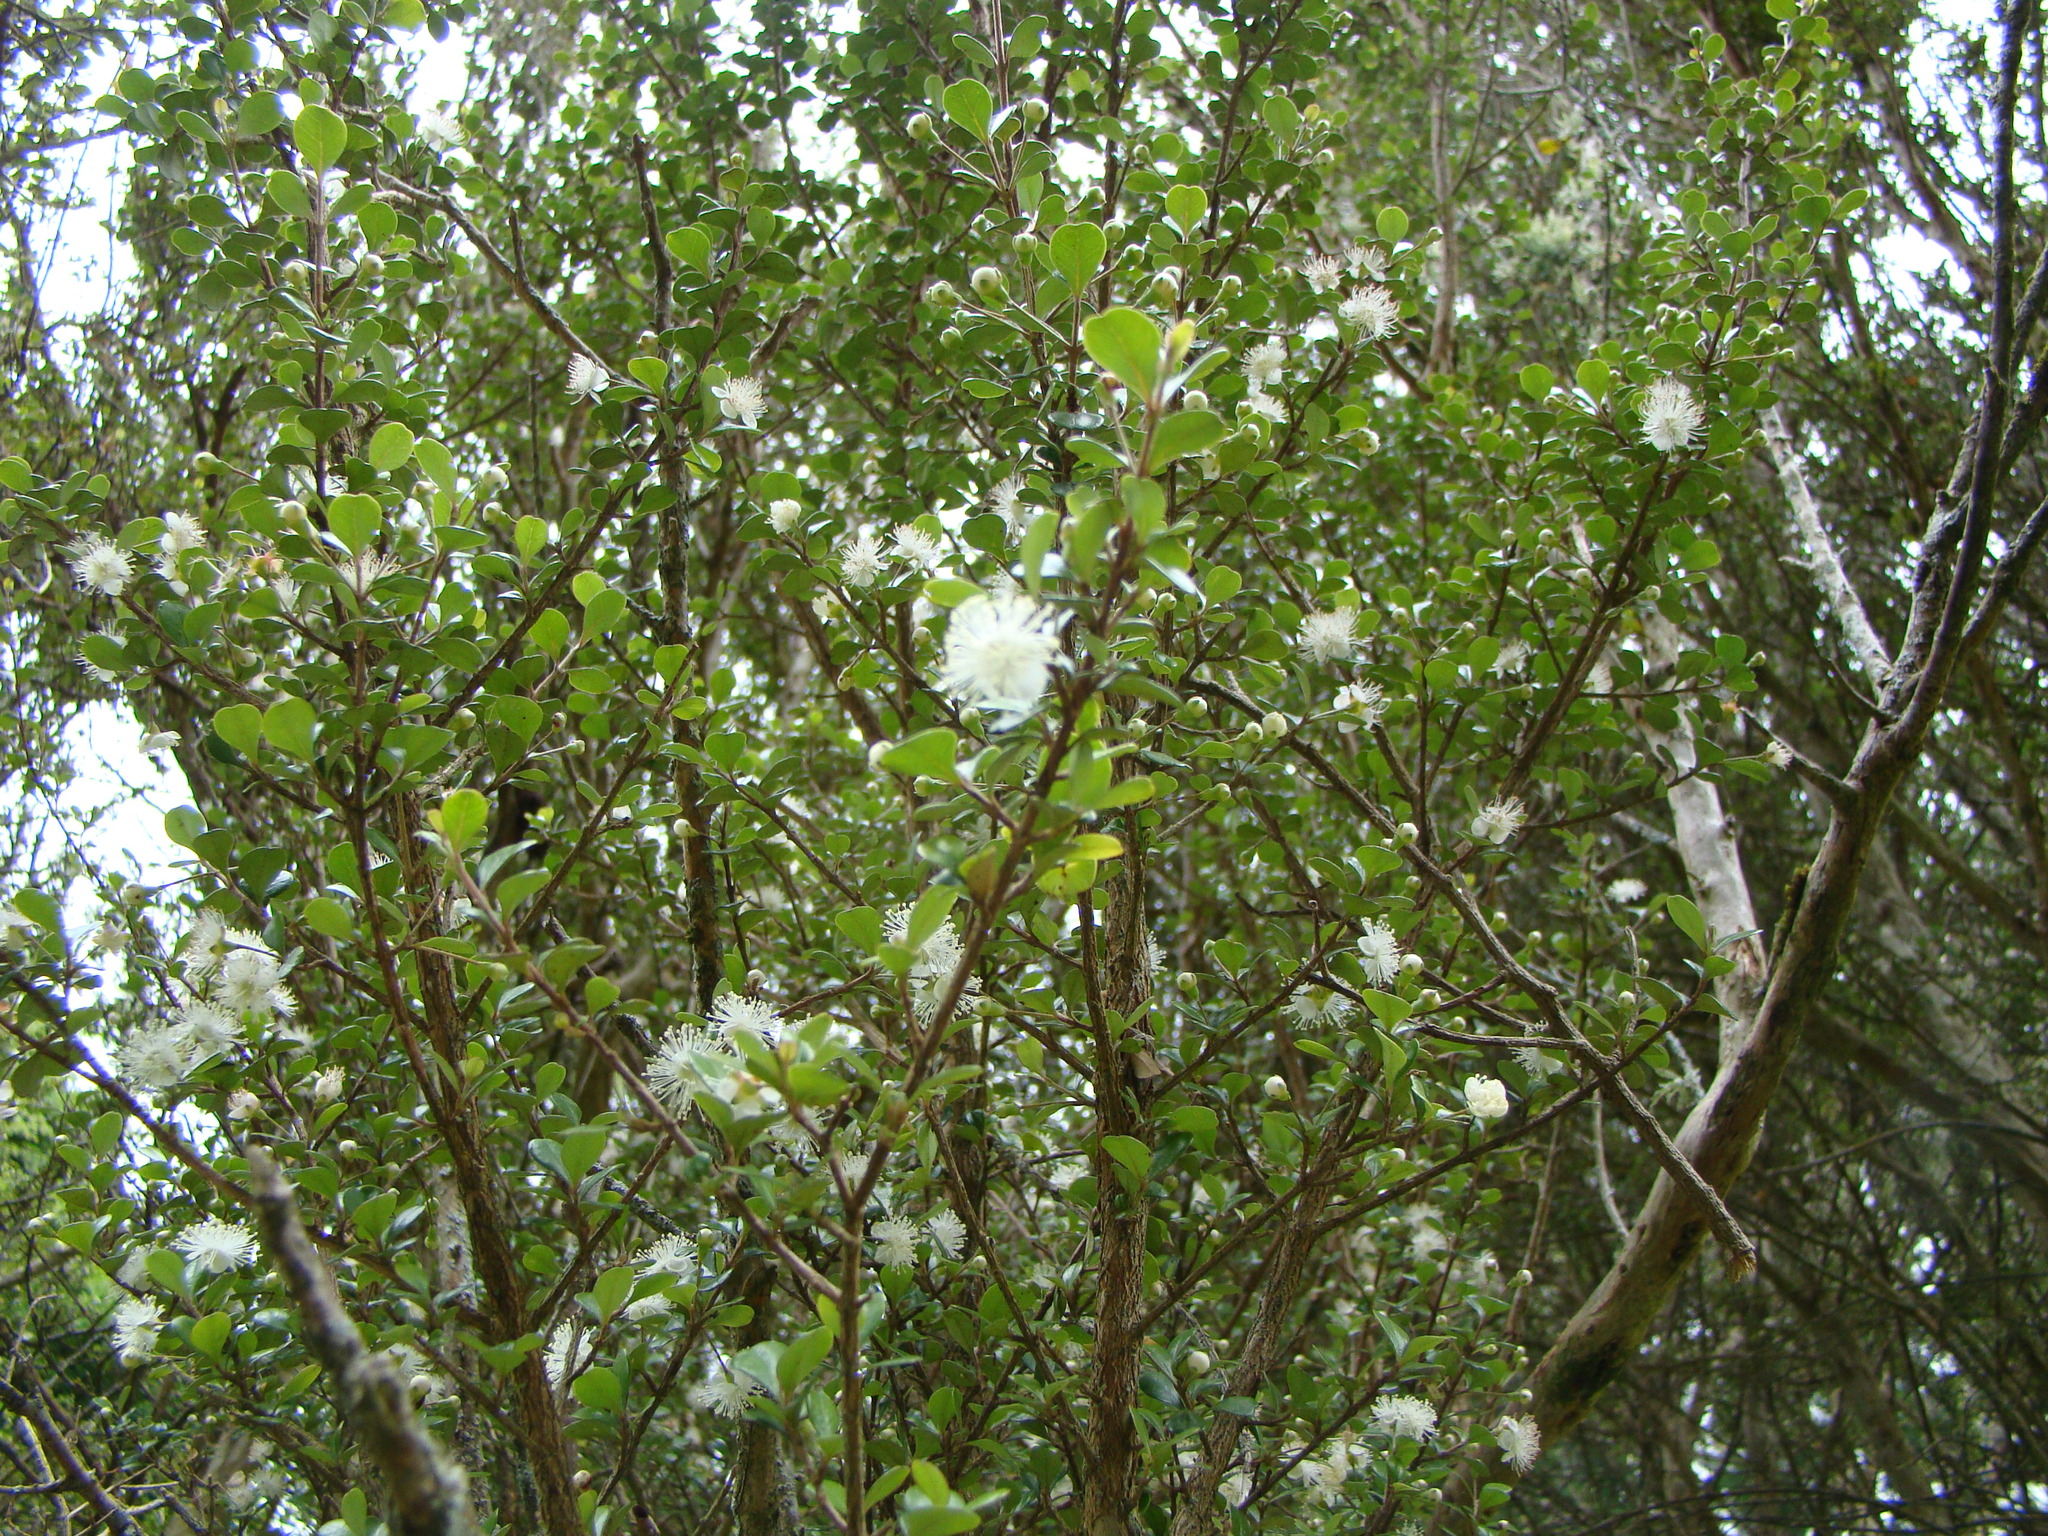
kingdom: Plantae
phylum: Tracheophyta
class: Magnoliopsida
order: Myrtales
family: Myrtaceae
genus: Lophomyrtus
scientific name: Lophomyrtus obcordata
